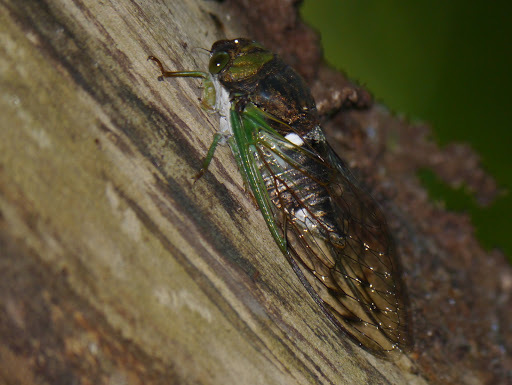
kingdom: Animalia
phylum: Arthropoda
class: Insecta
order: Hemiptera
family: Cicadidae
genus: Neotibicen
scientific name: Neotibicen tibicen
